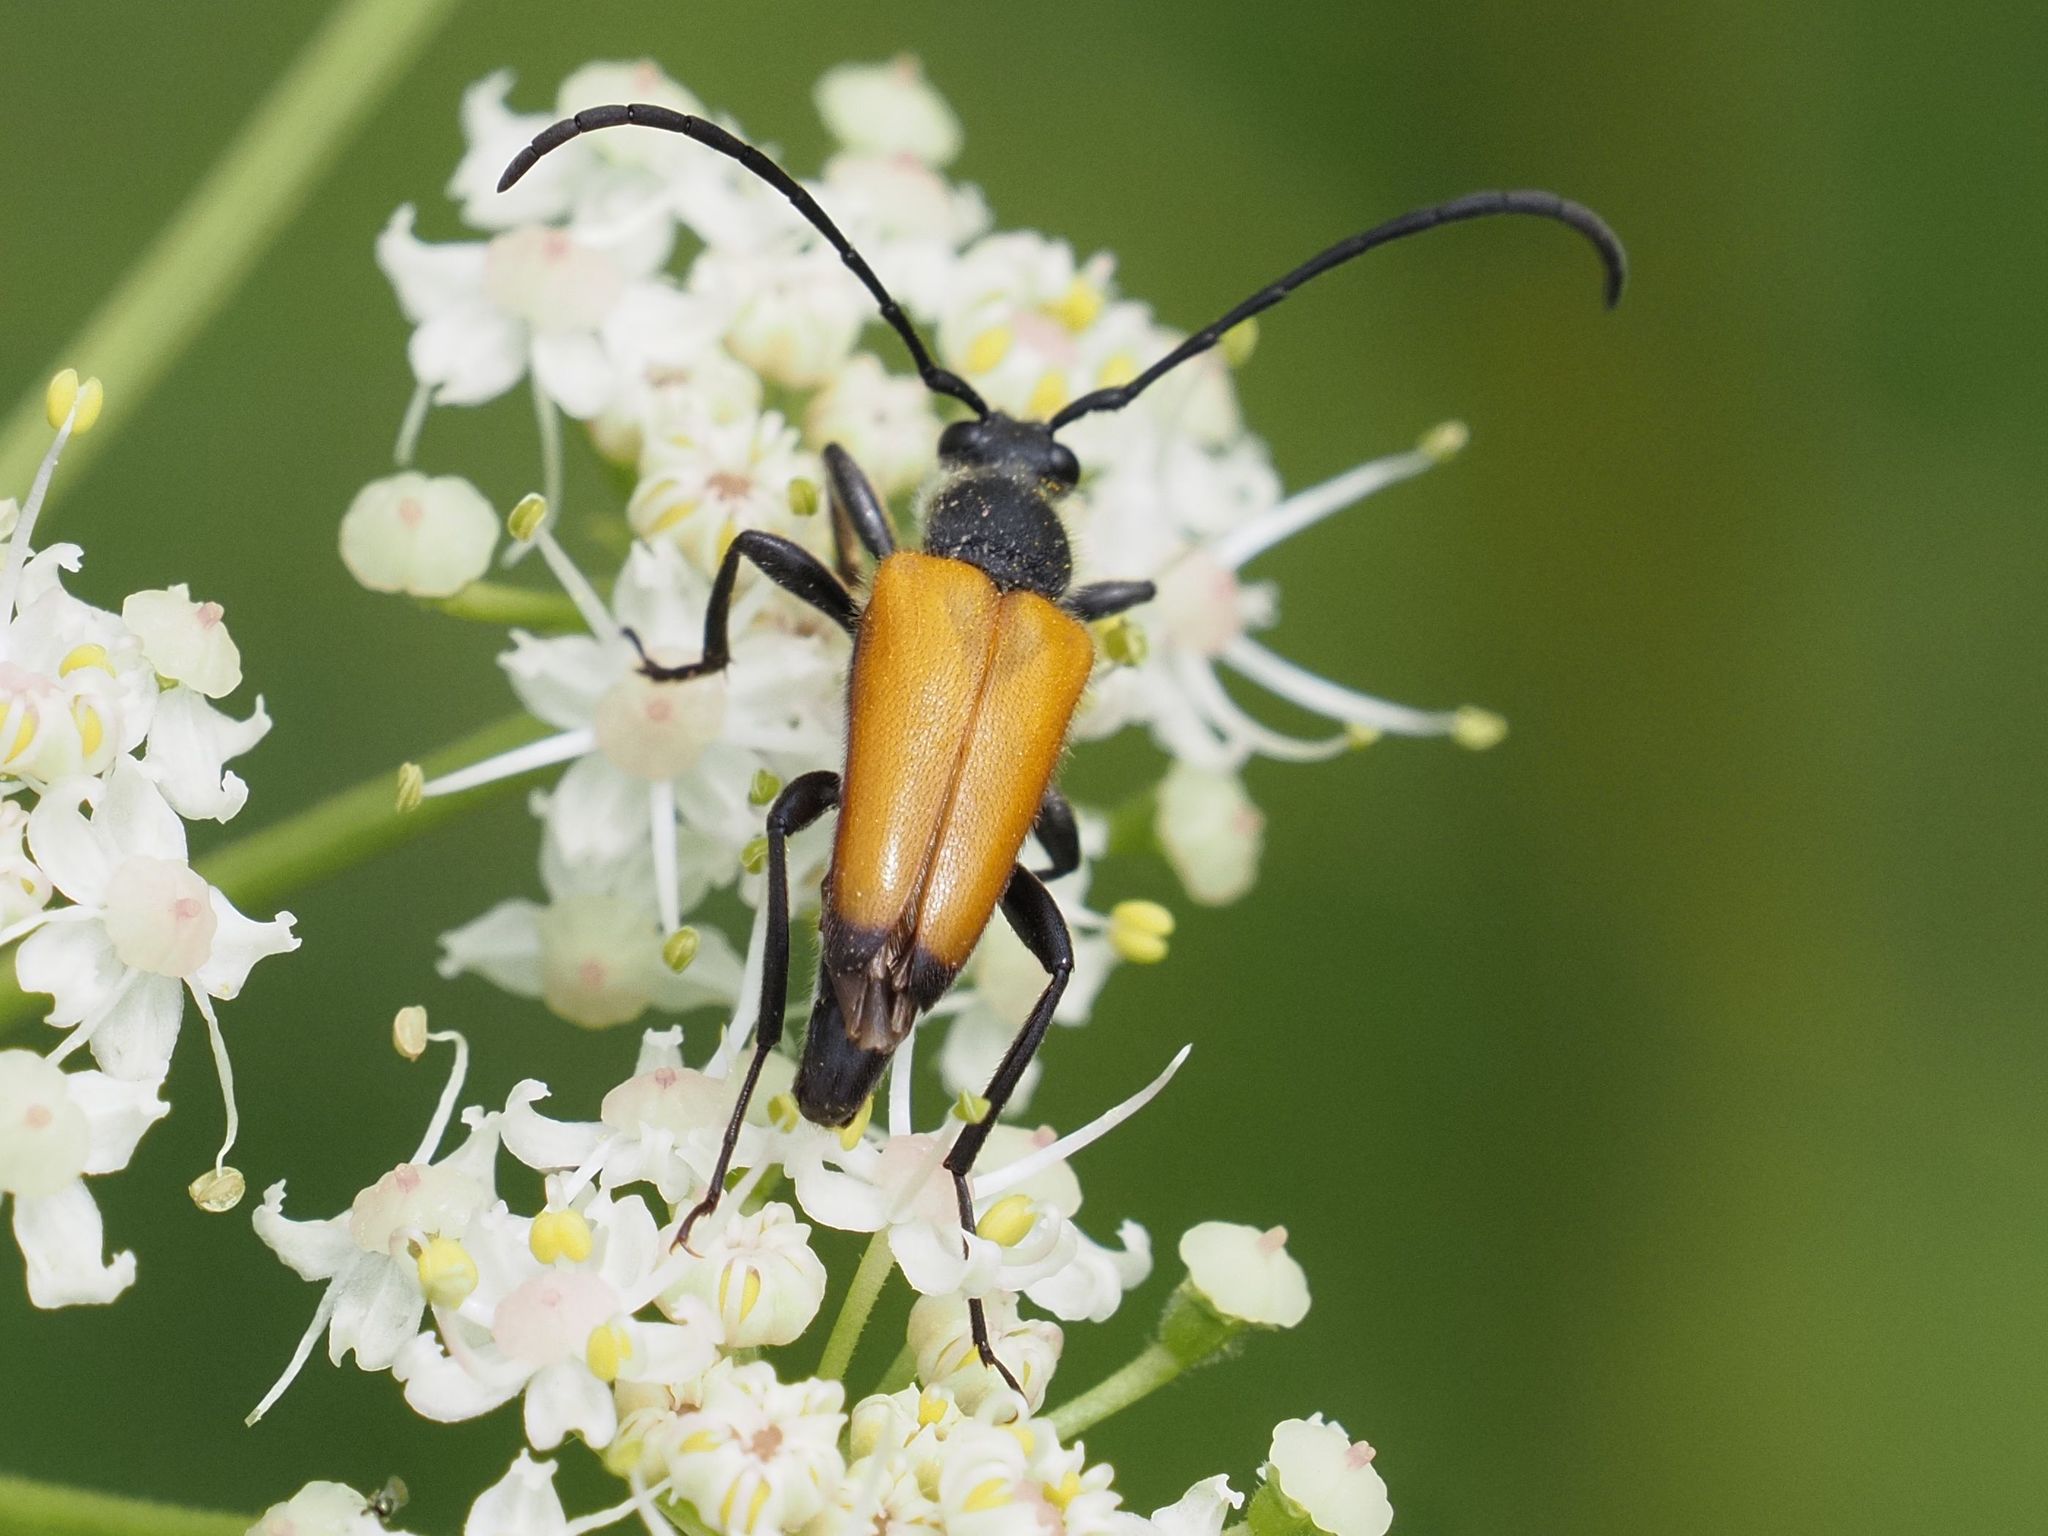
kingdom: Animalia
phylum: Arthropoda
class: Insecta
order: Coleoptera
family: Cerambycidae
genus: Paracorymbia
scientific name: Paracorymbia fulva
